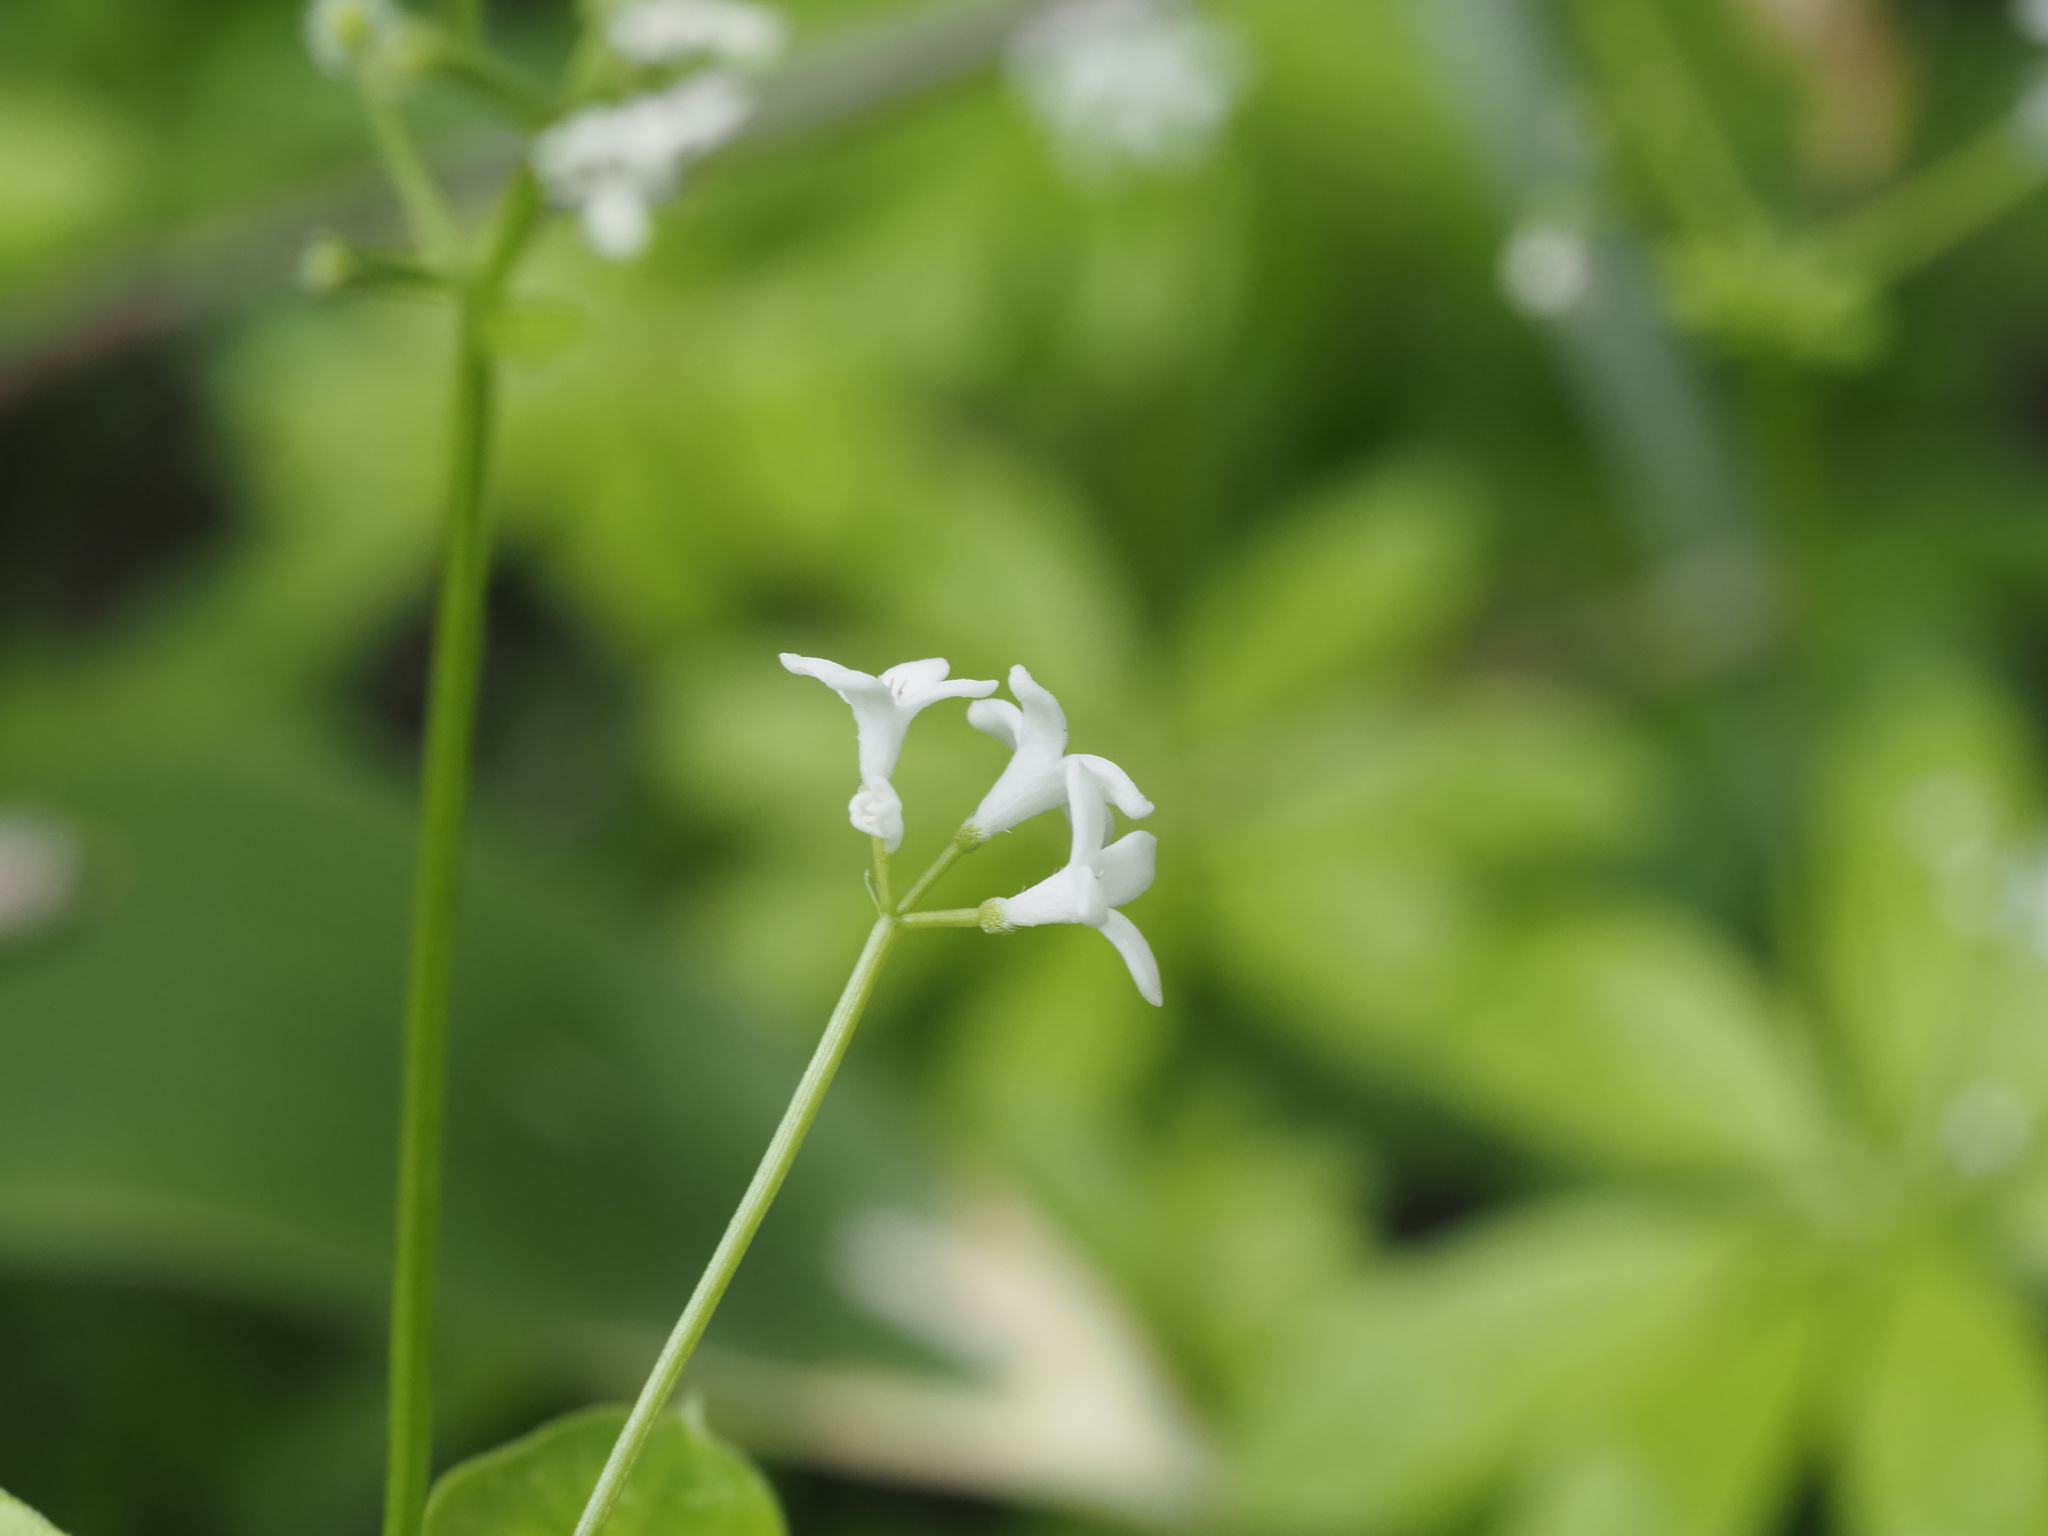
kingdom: Plantae
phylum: Tracheophyta
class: Magnoliopsida
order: Gentianales
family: Rubiaceae
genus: Galium
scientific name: Galium odoratum
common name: Sweet woodruff
